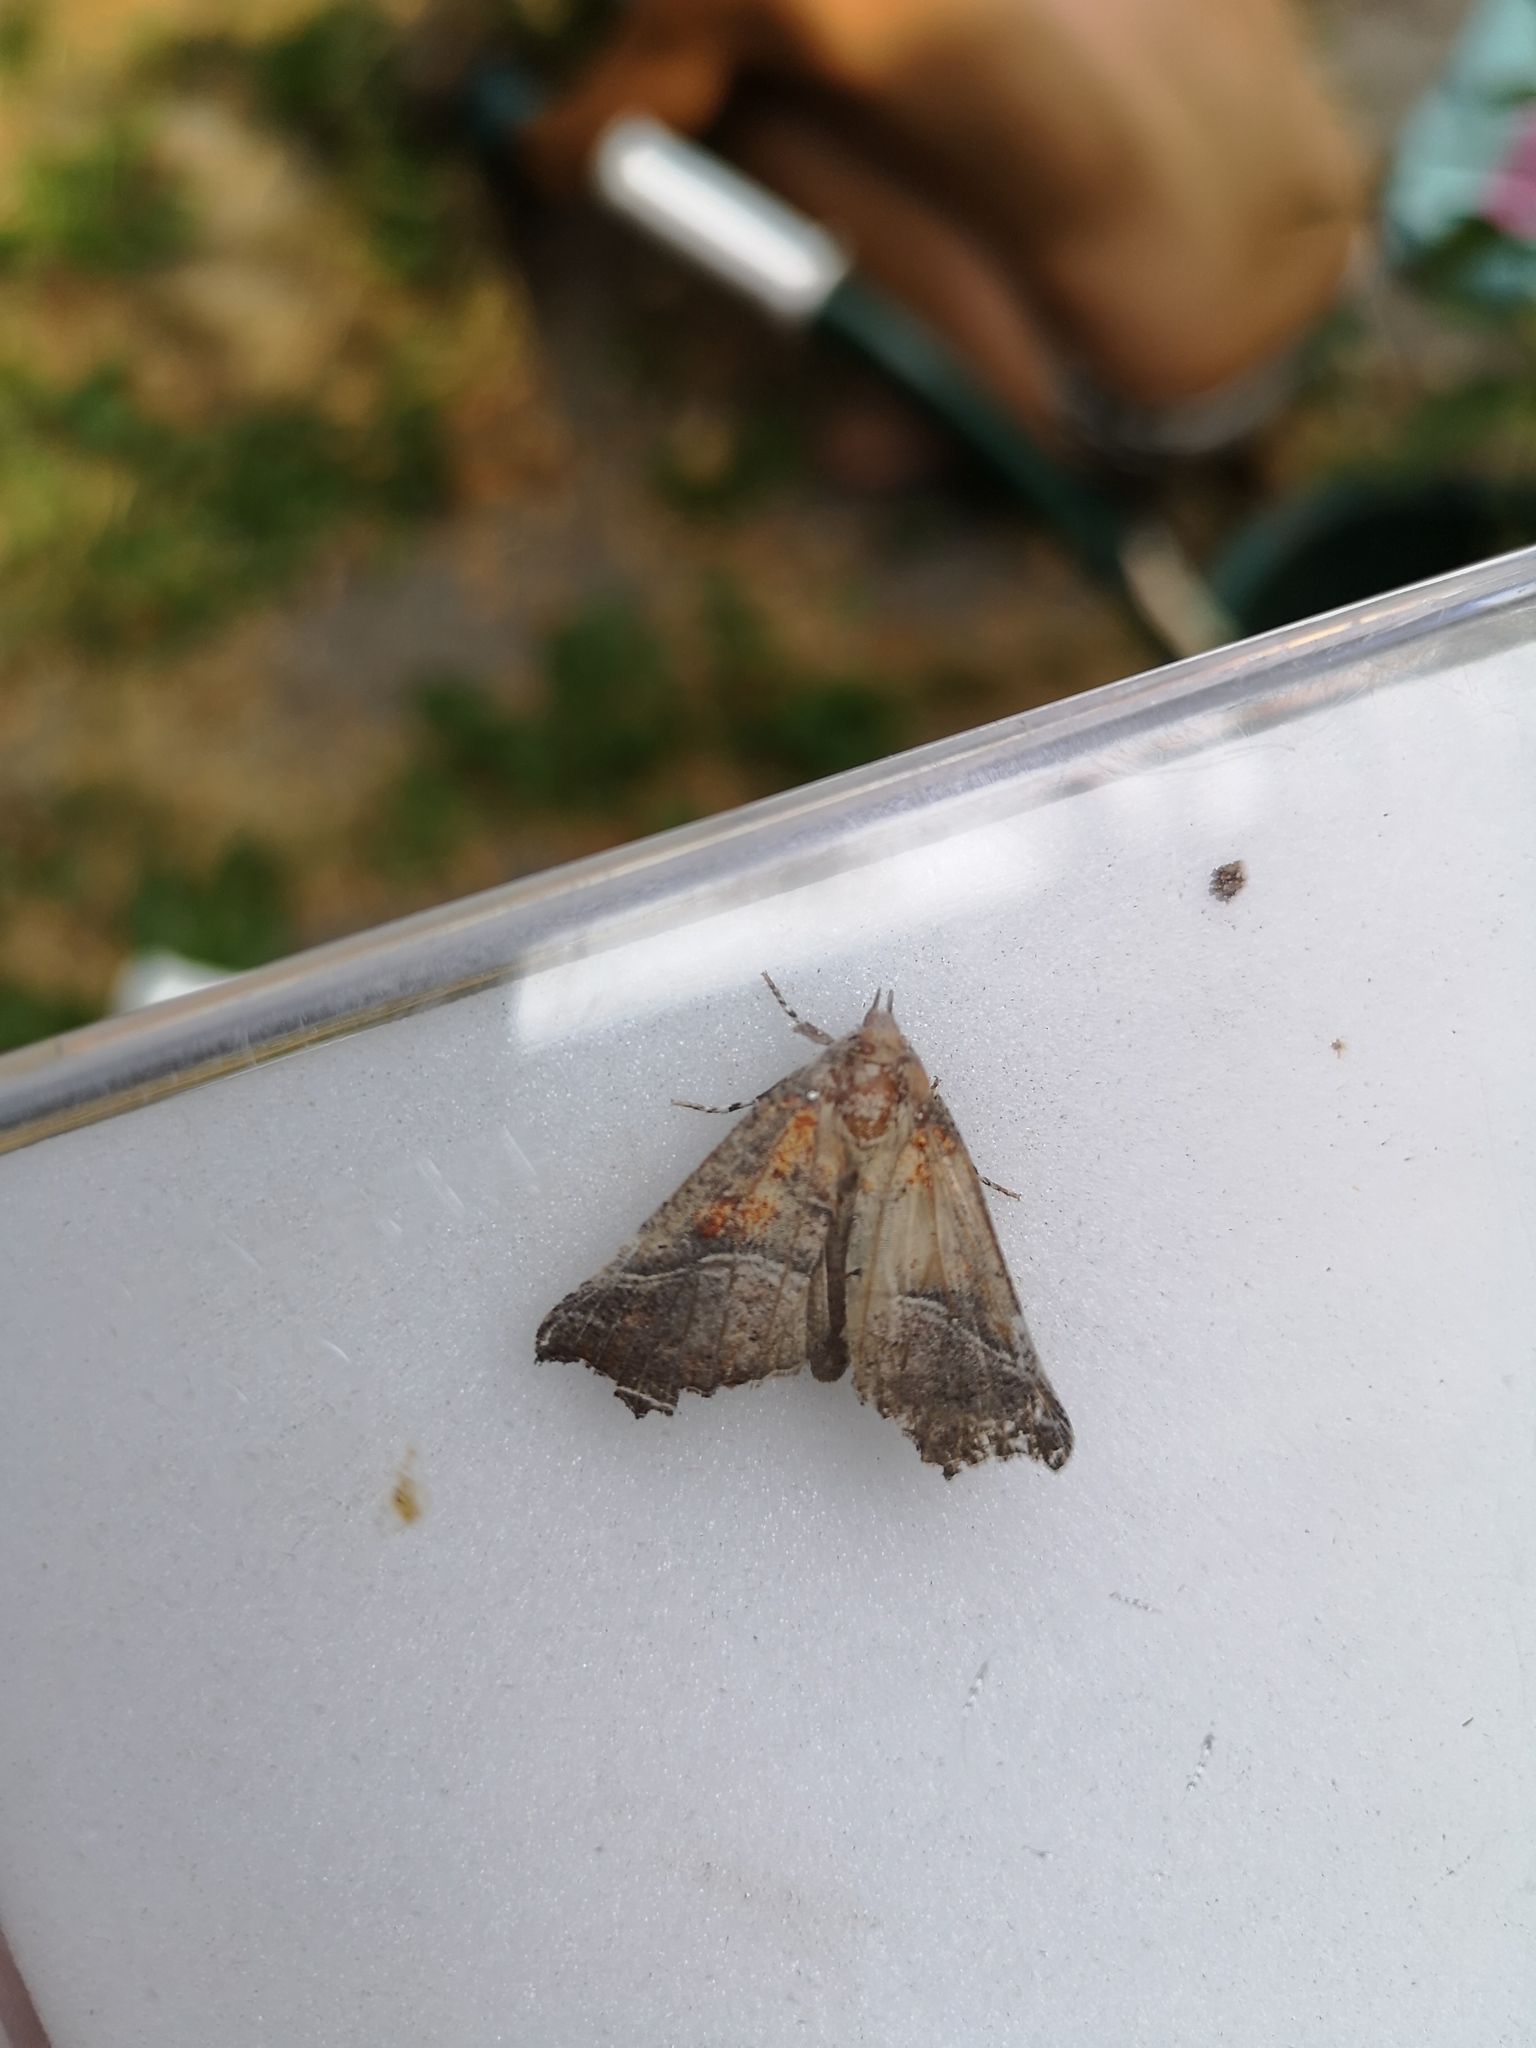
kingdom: Animalia
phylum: Arthropoda
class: Insecta
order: Lepidoptera
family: Erebidae
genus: Scoliopteryx
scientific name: Scoliopteryx libatrix
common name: Herald
